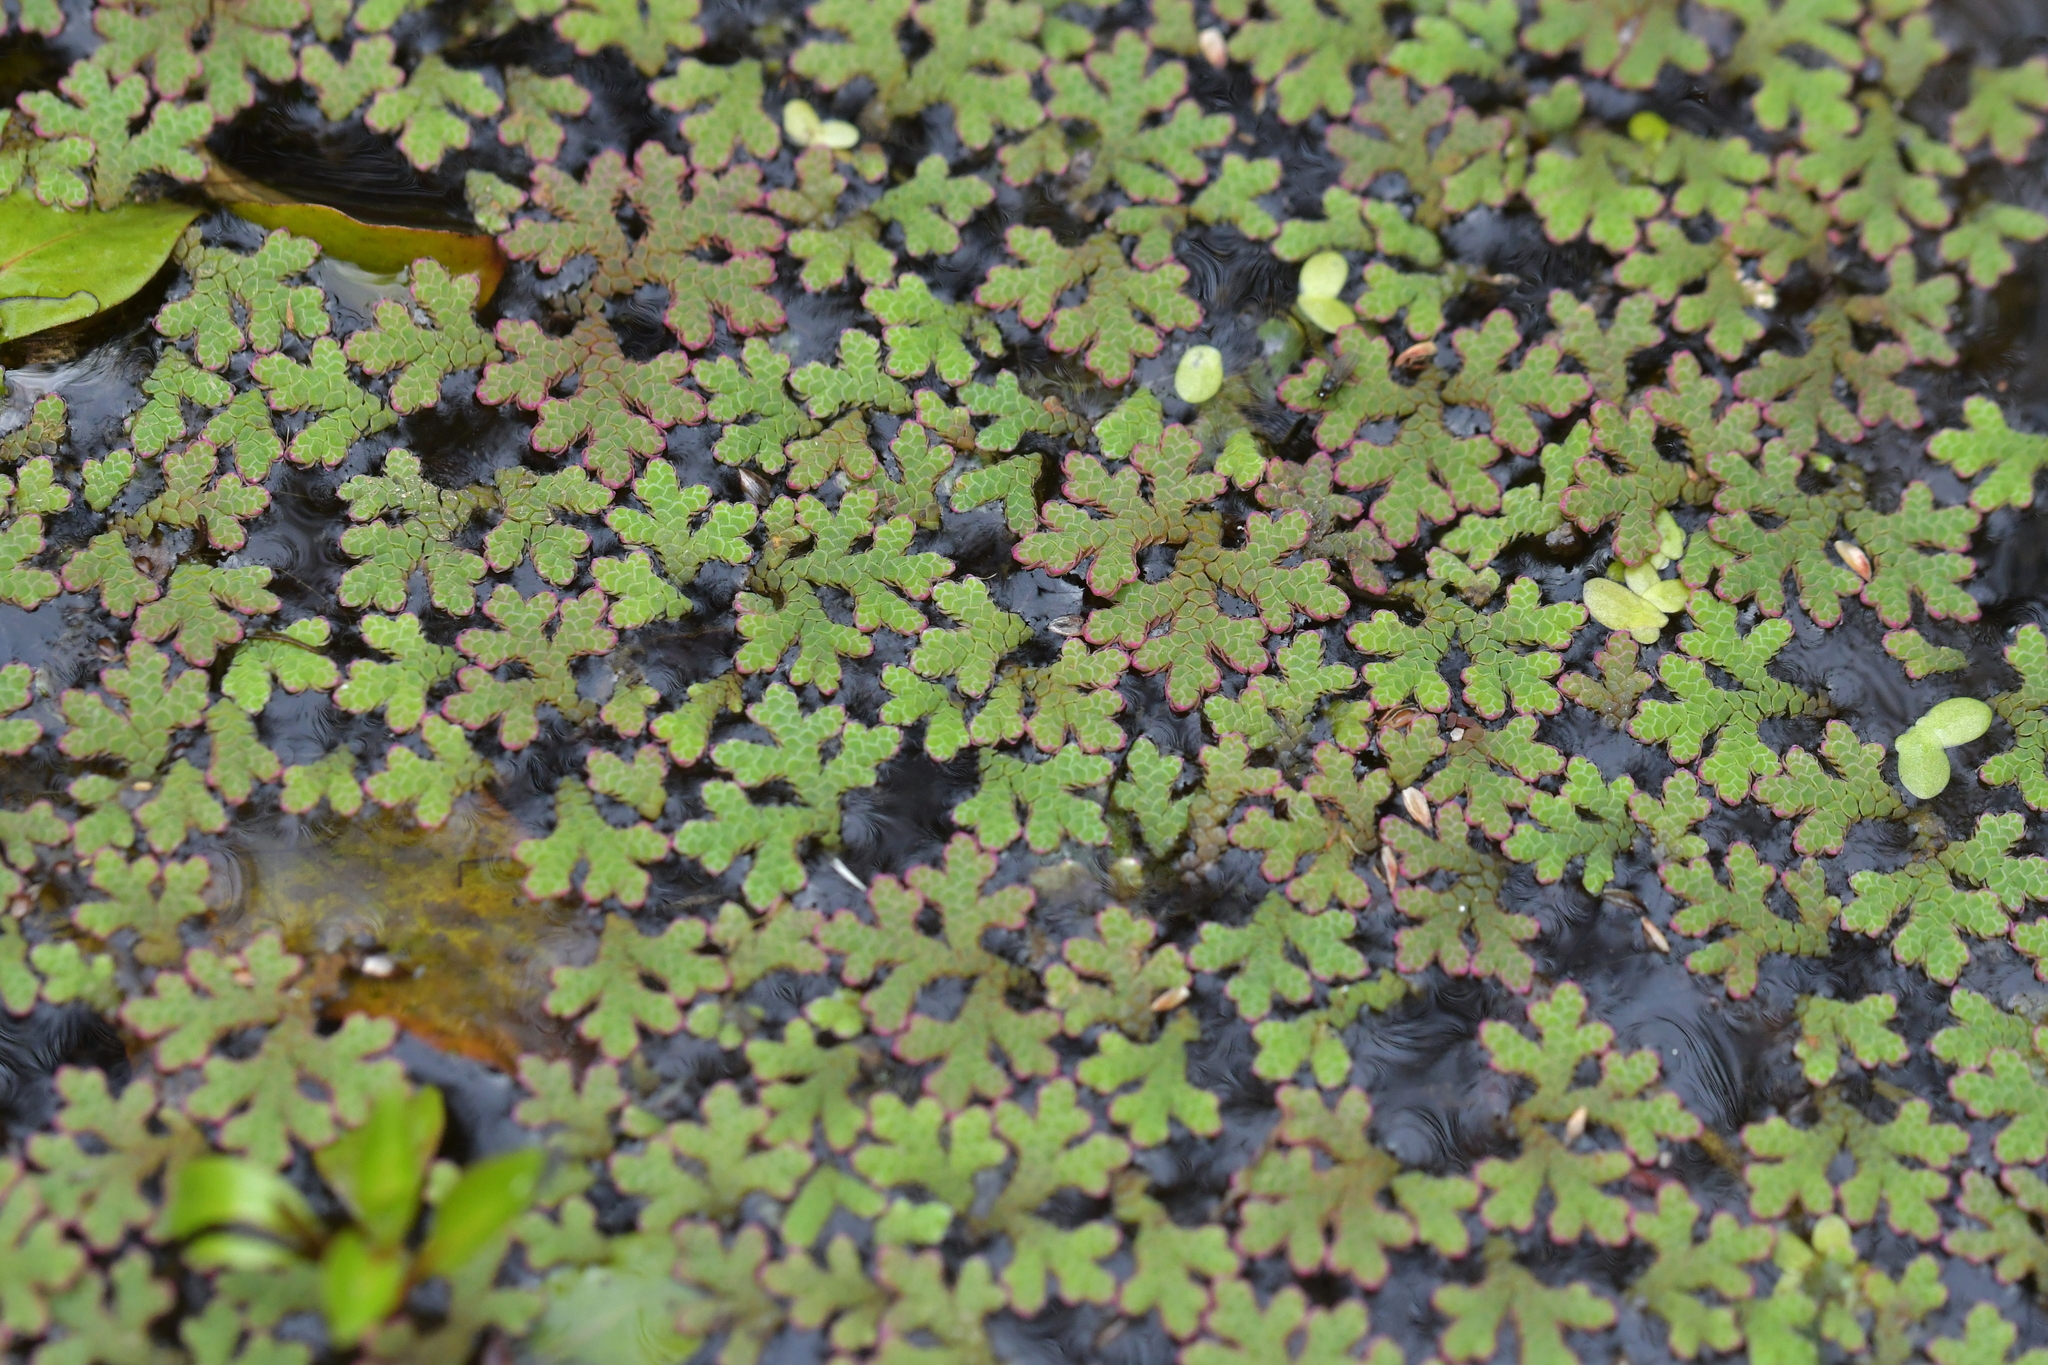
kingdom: Plantae
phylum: Tracheophyta
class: Polypodiopsida
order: Salviniales
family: Salviniaceae
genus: Azolla
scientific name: Azolla rubra
